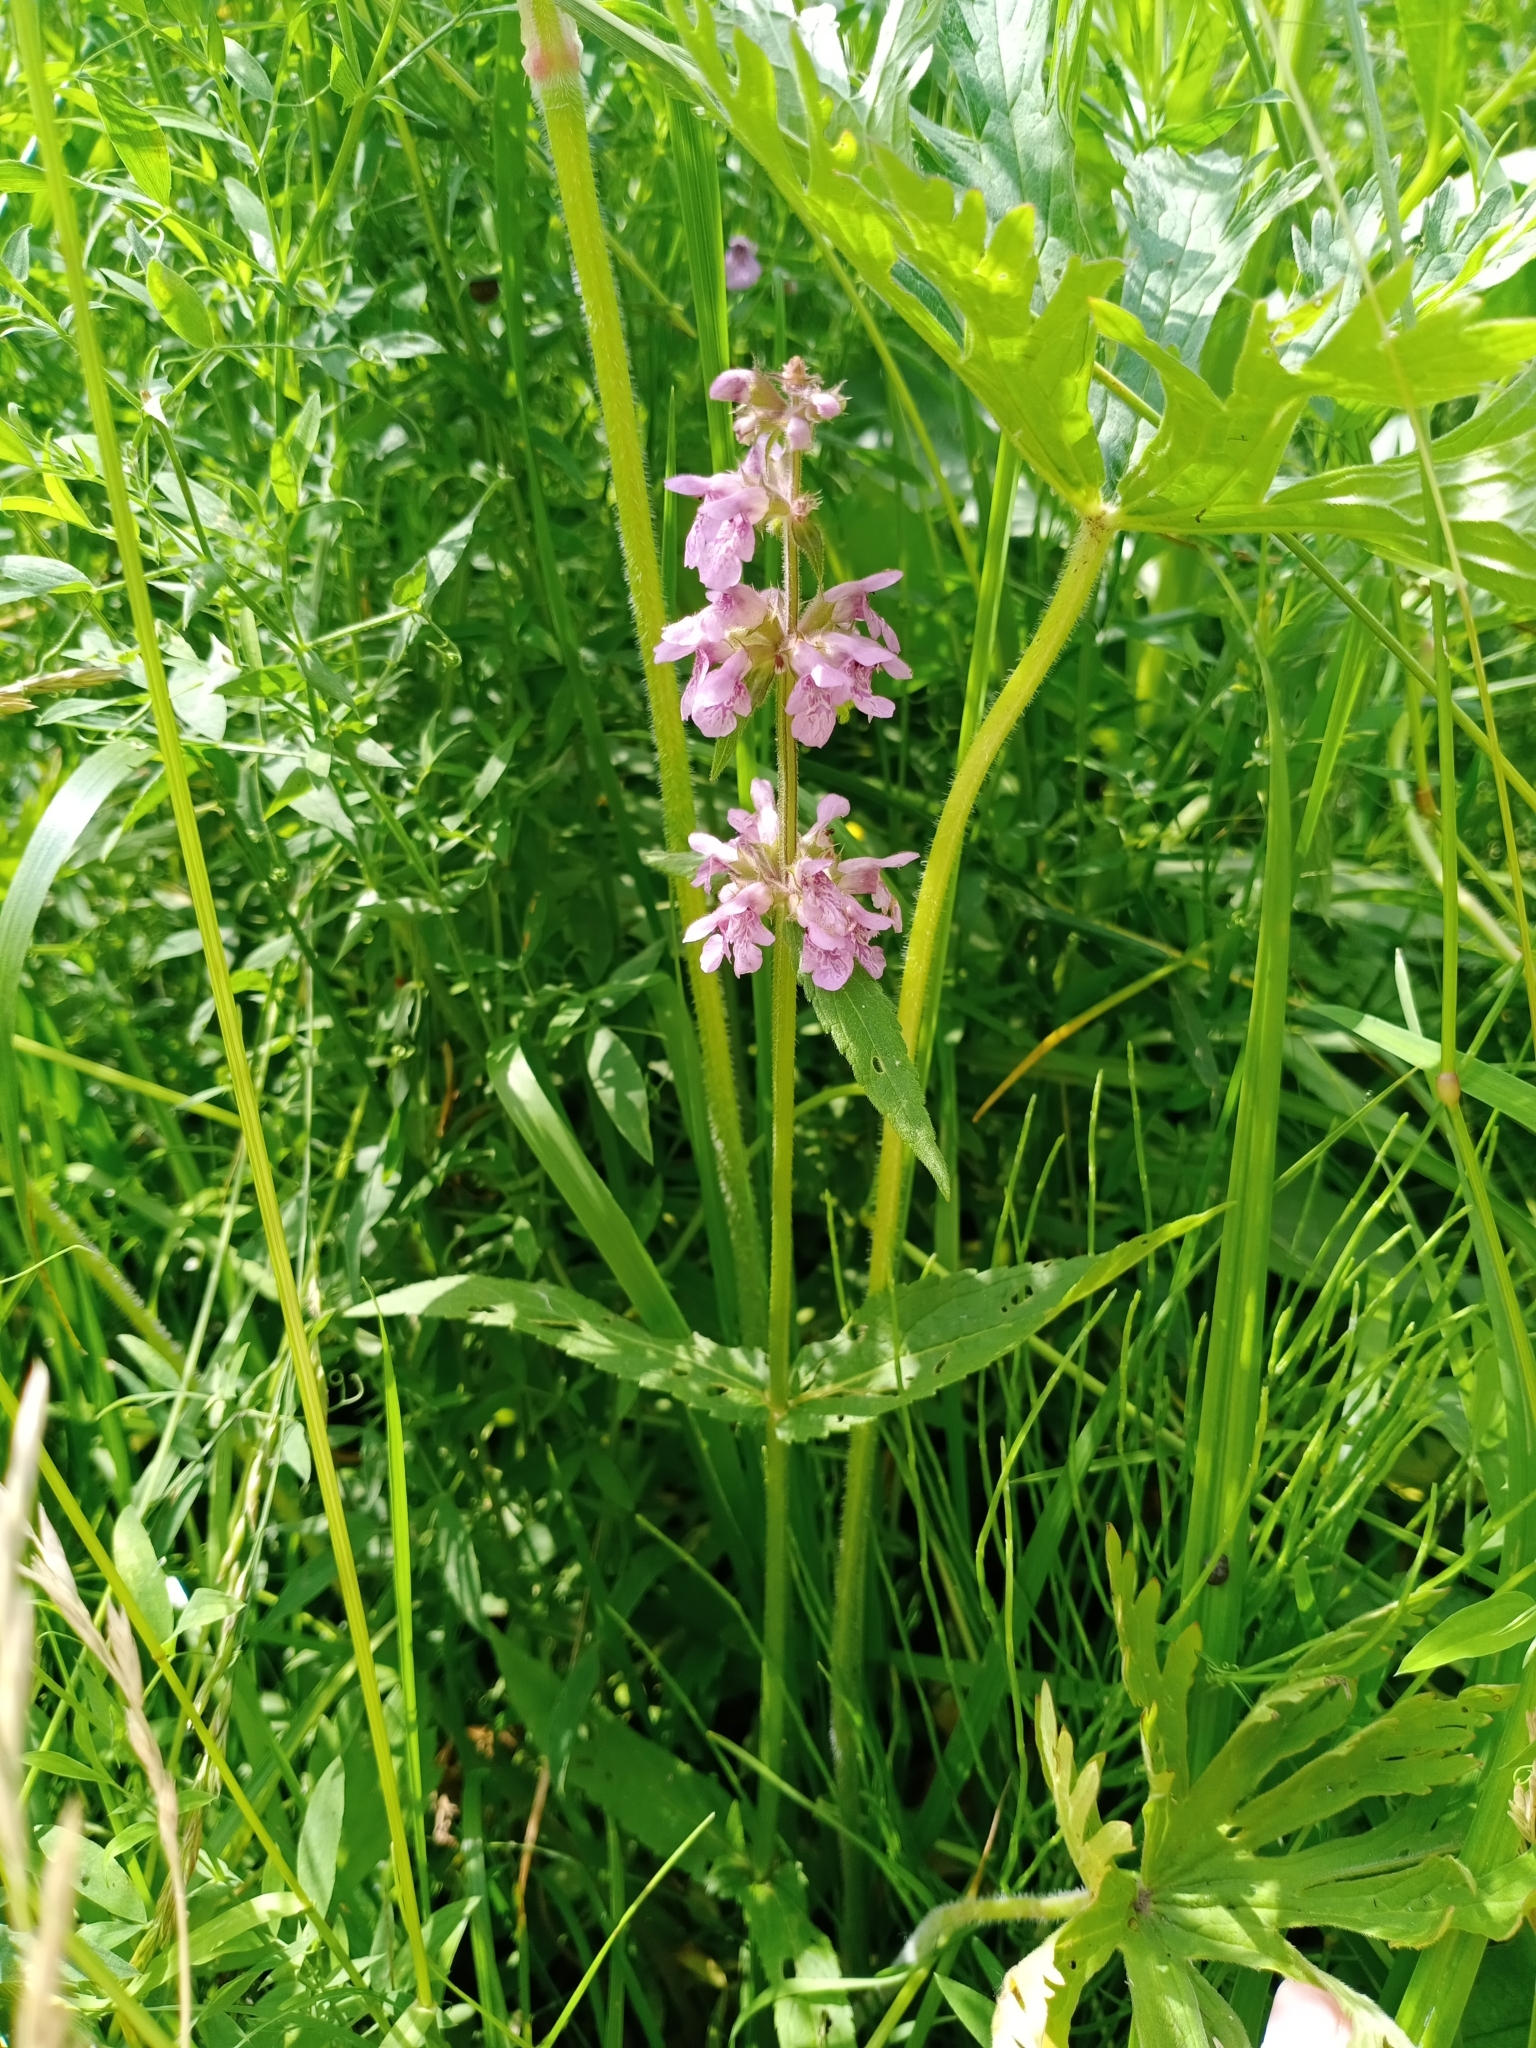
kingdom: Plantae
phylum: Tracheophyta
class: Magnoliopsida
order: Lamiales
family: Lamiaceae
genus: Stachys
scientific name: Stachys palustris
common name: Marsh woundwort
